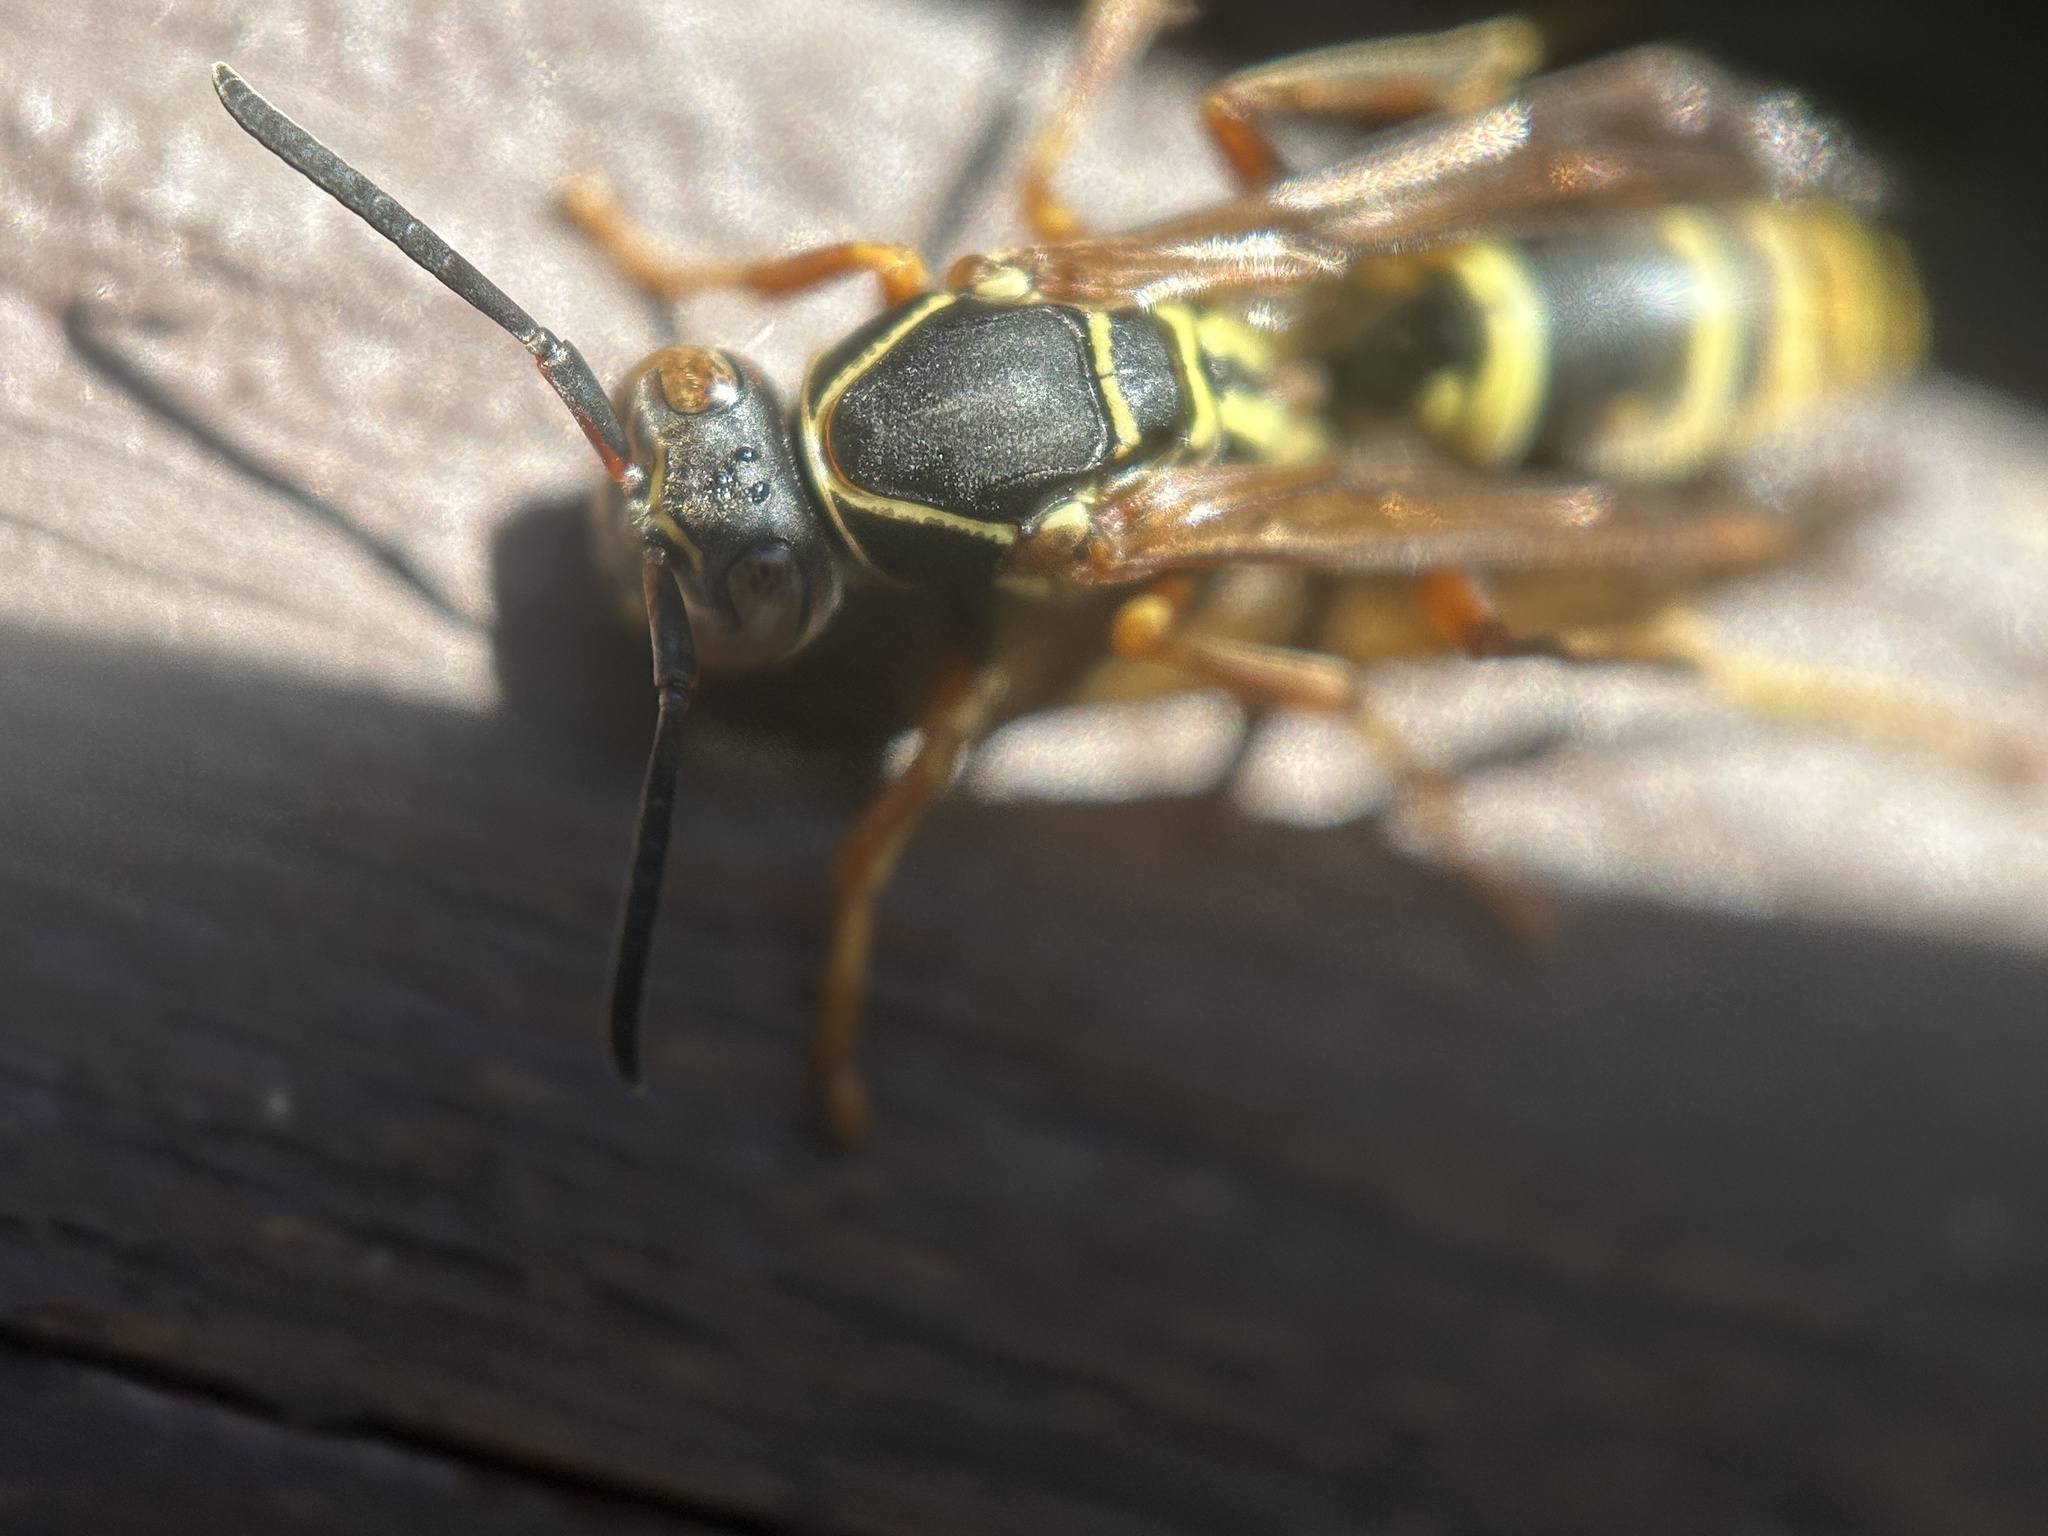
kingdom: Animalia
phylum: Arthropoda
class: Insecta
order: Hymenoptera
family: Eumenidae
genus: Polistes
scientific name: Polistes fuscatus
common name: Dark paper wasp
